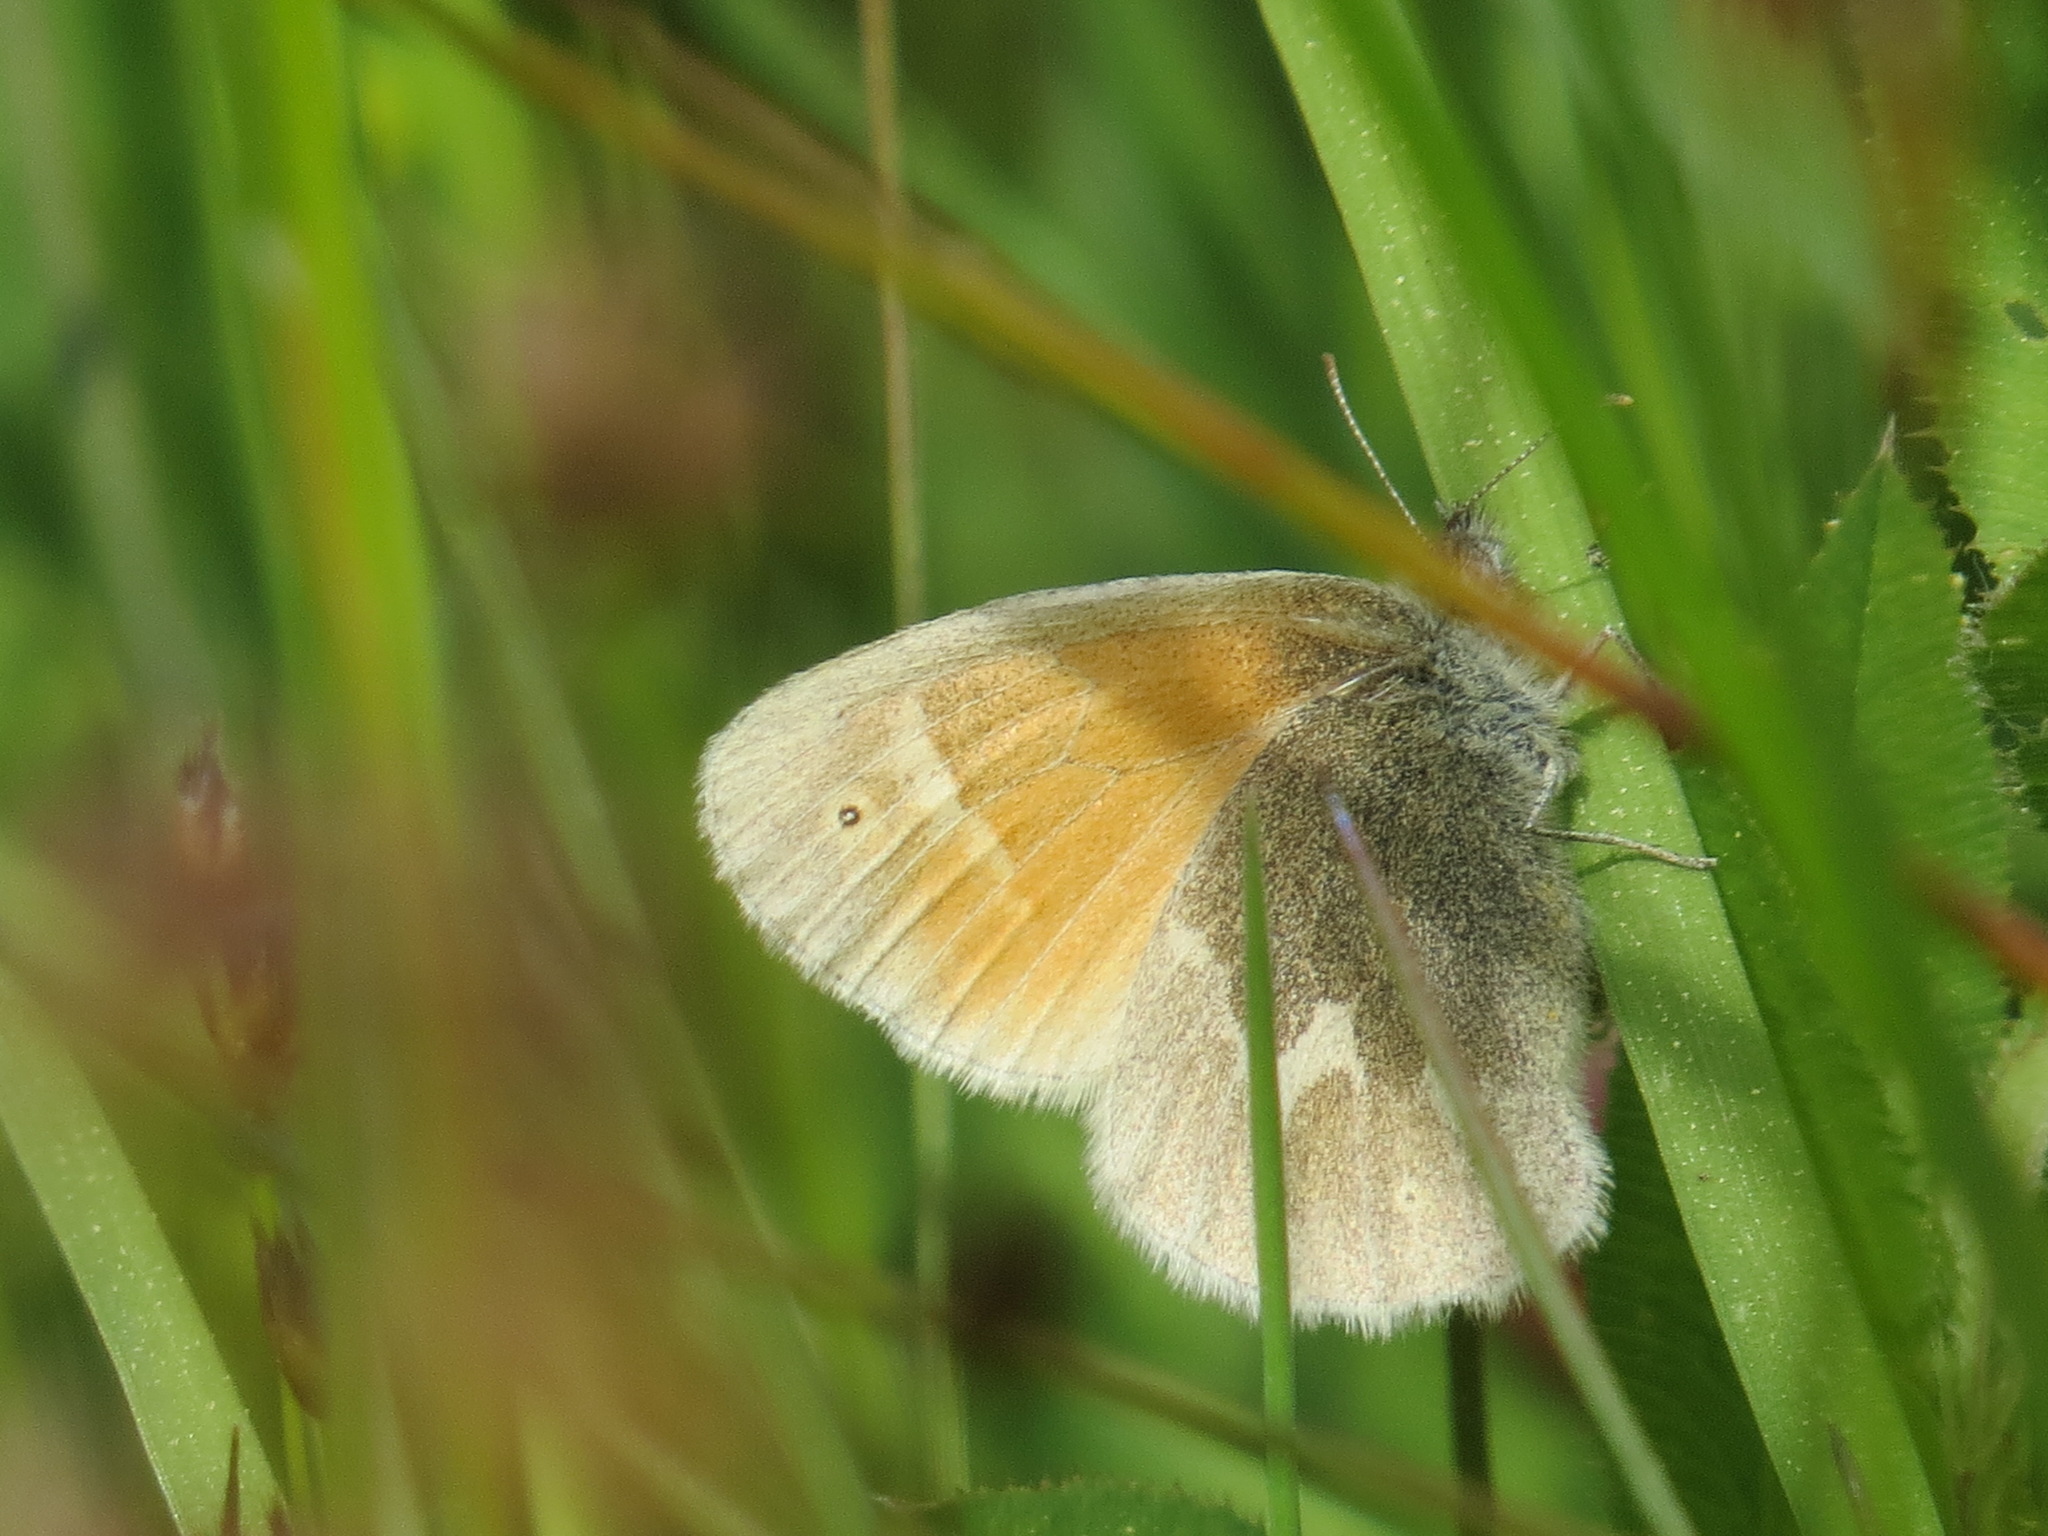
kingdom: Animalia
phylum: Arthropoda
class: Insecta
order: Lepidoptera
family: Nymphalidae
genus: Coenonympha
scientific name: Coenonympha california
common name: Common ringlet
